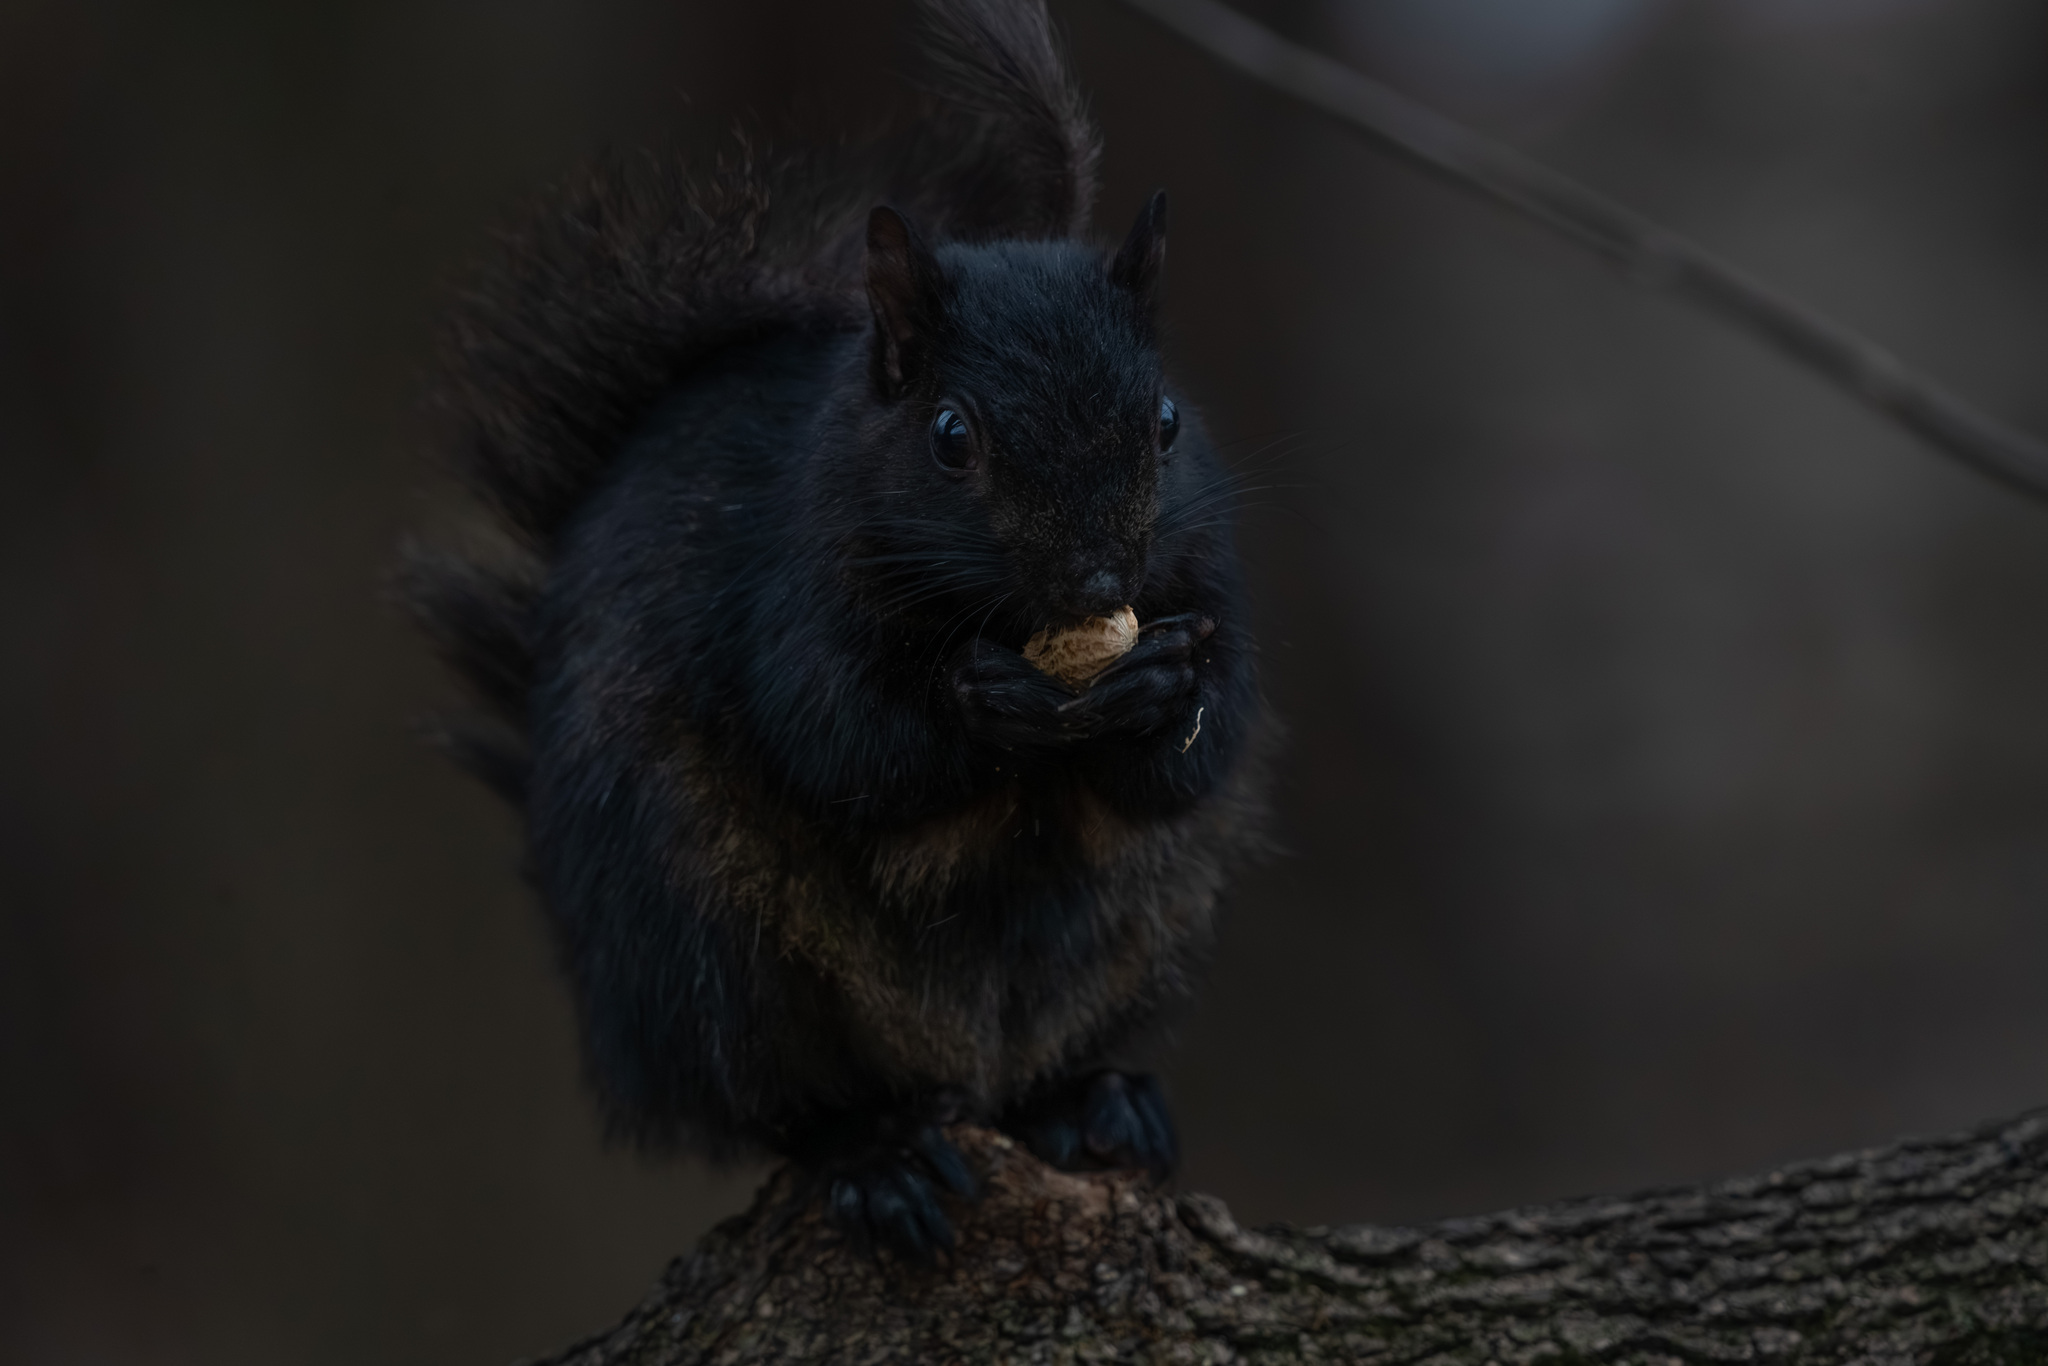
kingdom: Animalia
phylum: Chordata
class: Mammalia
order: Rodentia
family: Sciuridae
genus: Sciurus
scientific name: Sciurus carolinensis
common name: Eastern gray squirrel
